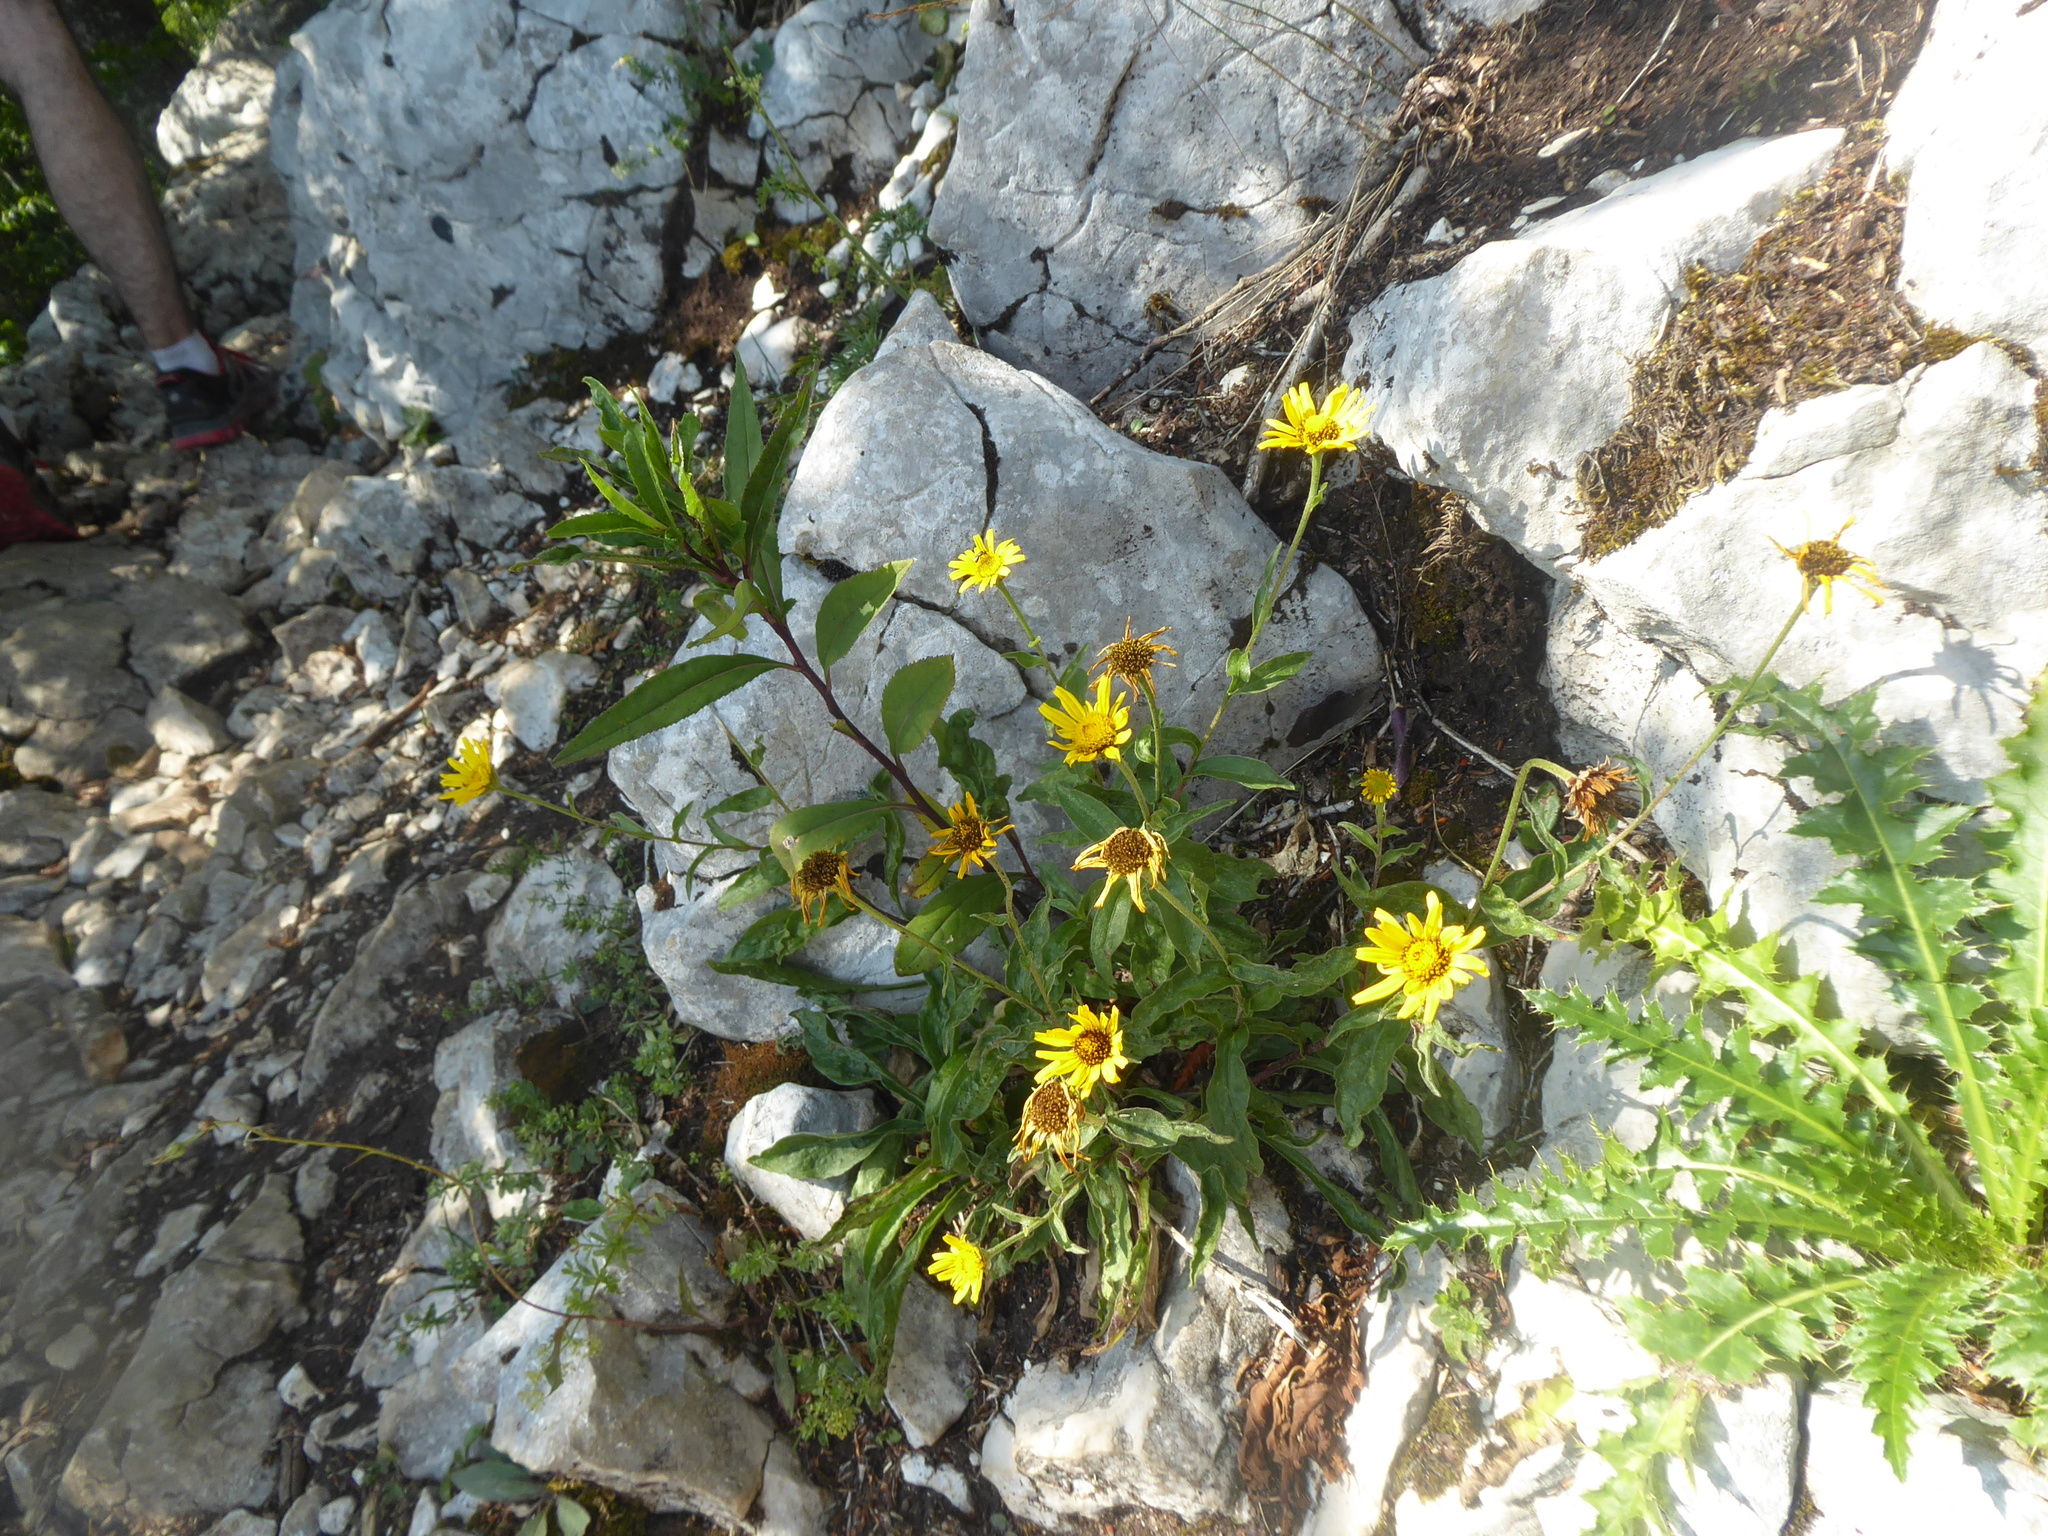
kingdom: Plantae
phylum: Tracheophyta
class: Magnoliopsida
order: Asterales
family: Asteraceae
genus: Buphthalmum
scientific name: Buphthalmum salicifolium
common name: Willow-leaved yellow-oxeye
